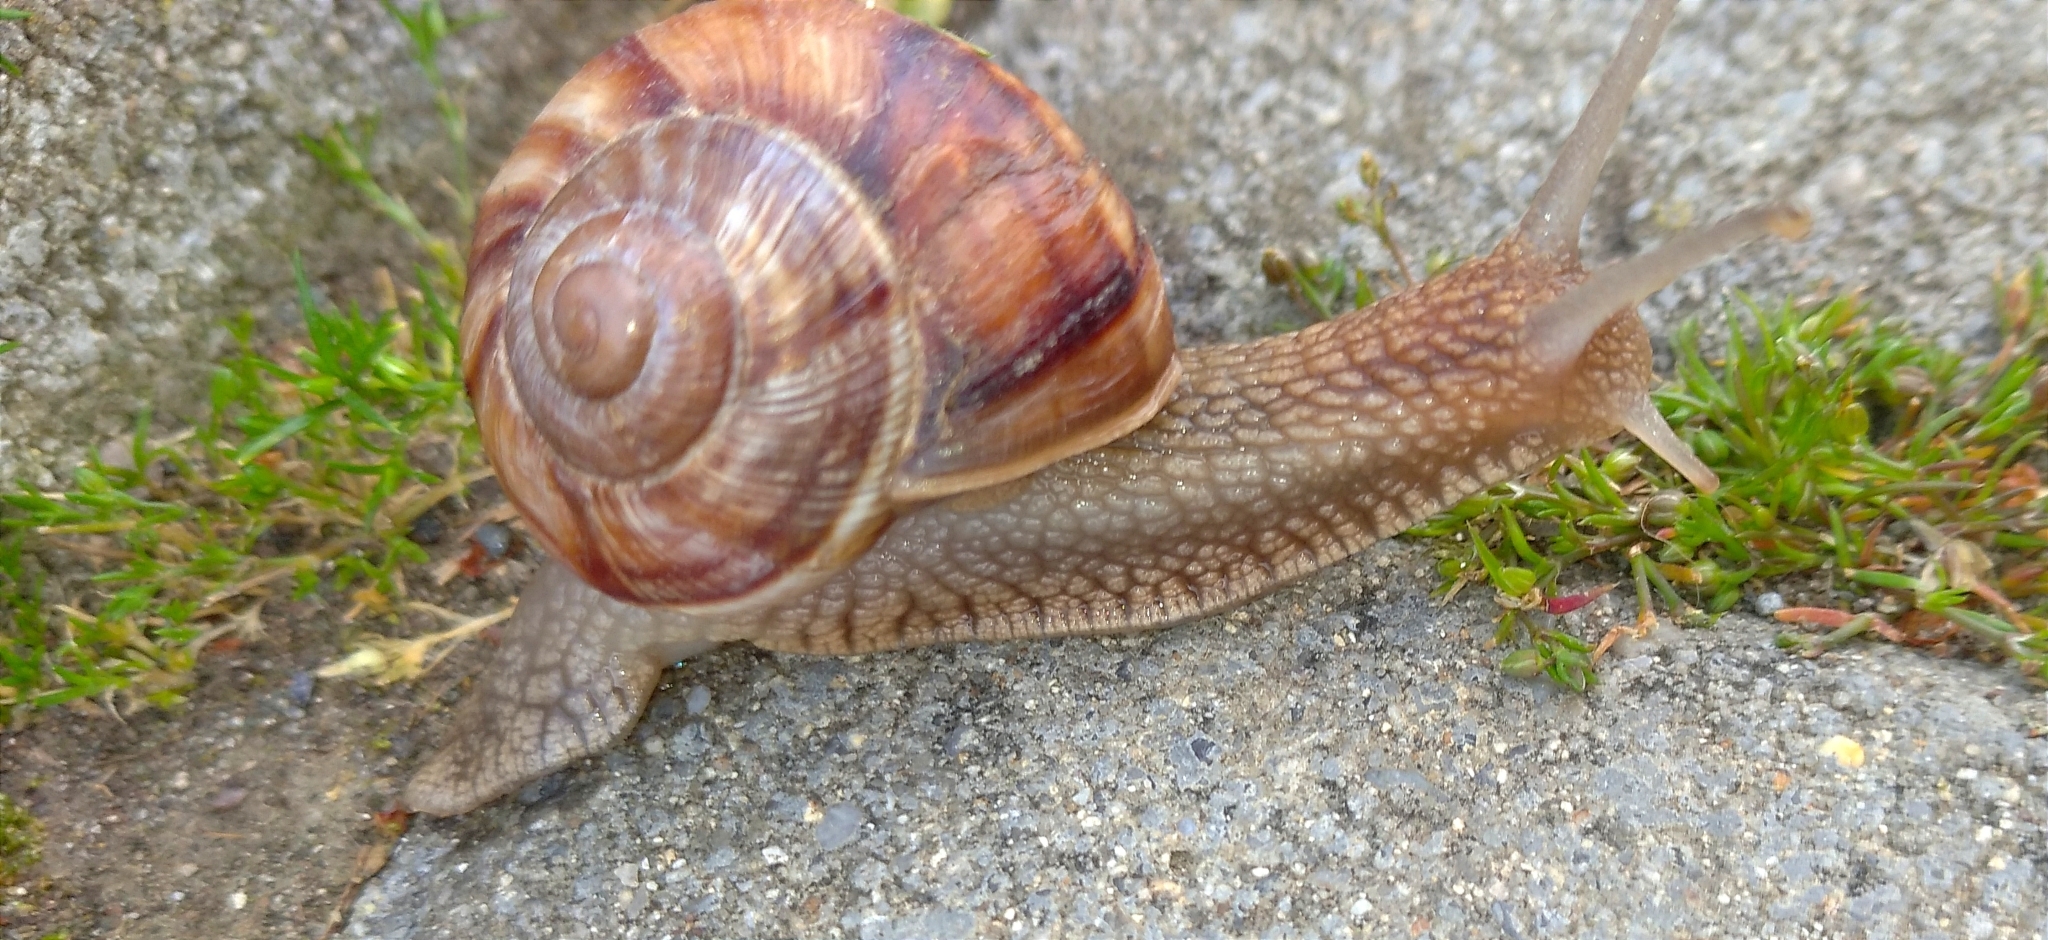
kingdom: Animalia
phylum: Mollusca
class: Gastropoda
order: Stylommatophora
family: Helicidae
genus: Helix
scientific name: Helix lucorum
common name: Turkish snail
